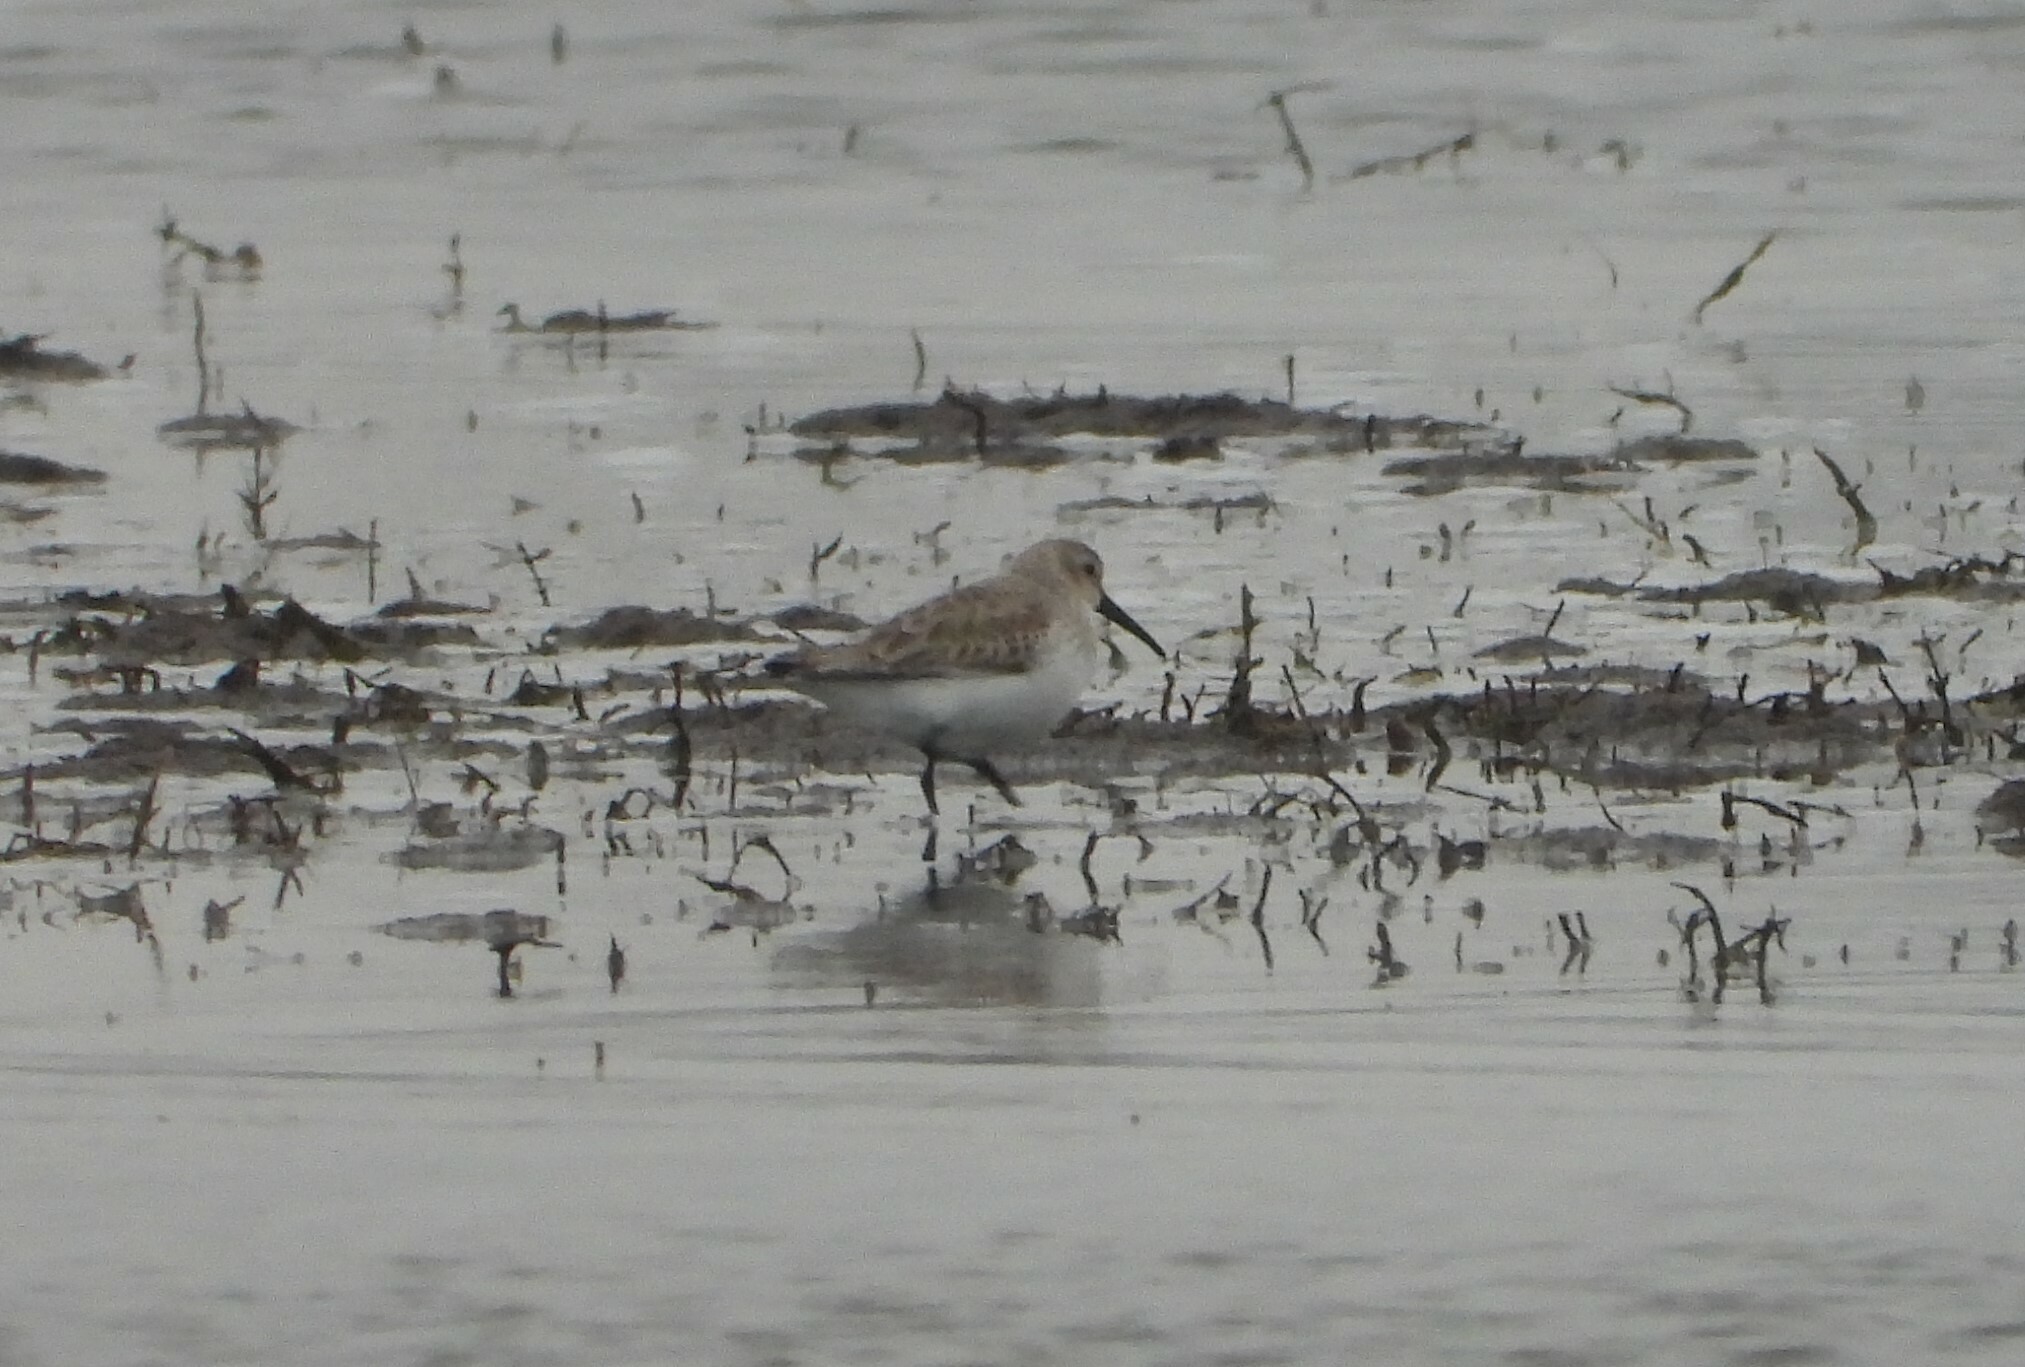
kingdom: Animalia
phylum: Chordata
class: Aves
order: Charadriiformes
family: Scolopacidae
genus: Calidris
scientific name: Calidris alpina
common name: Dunlin
